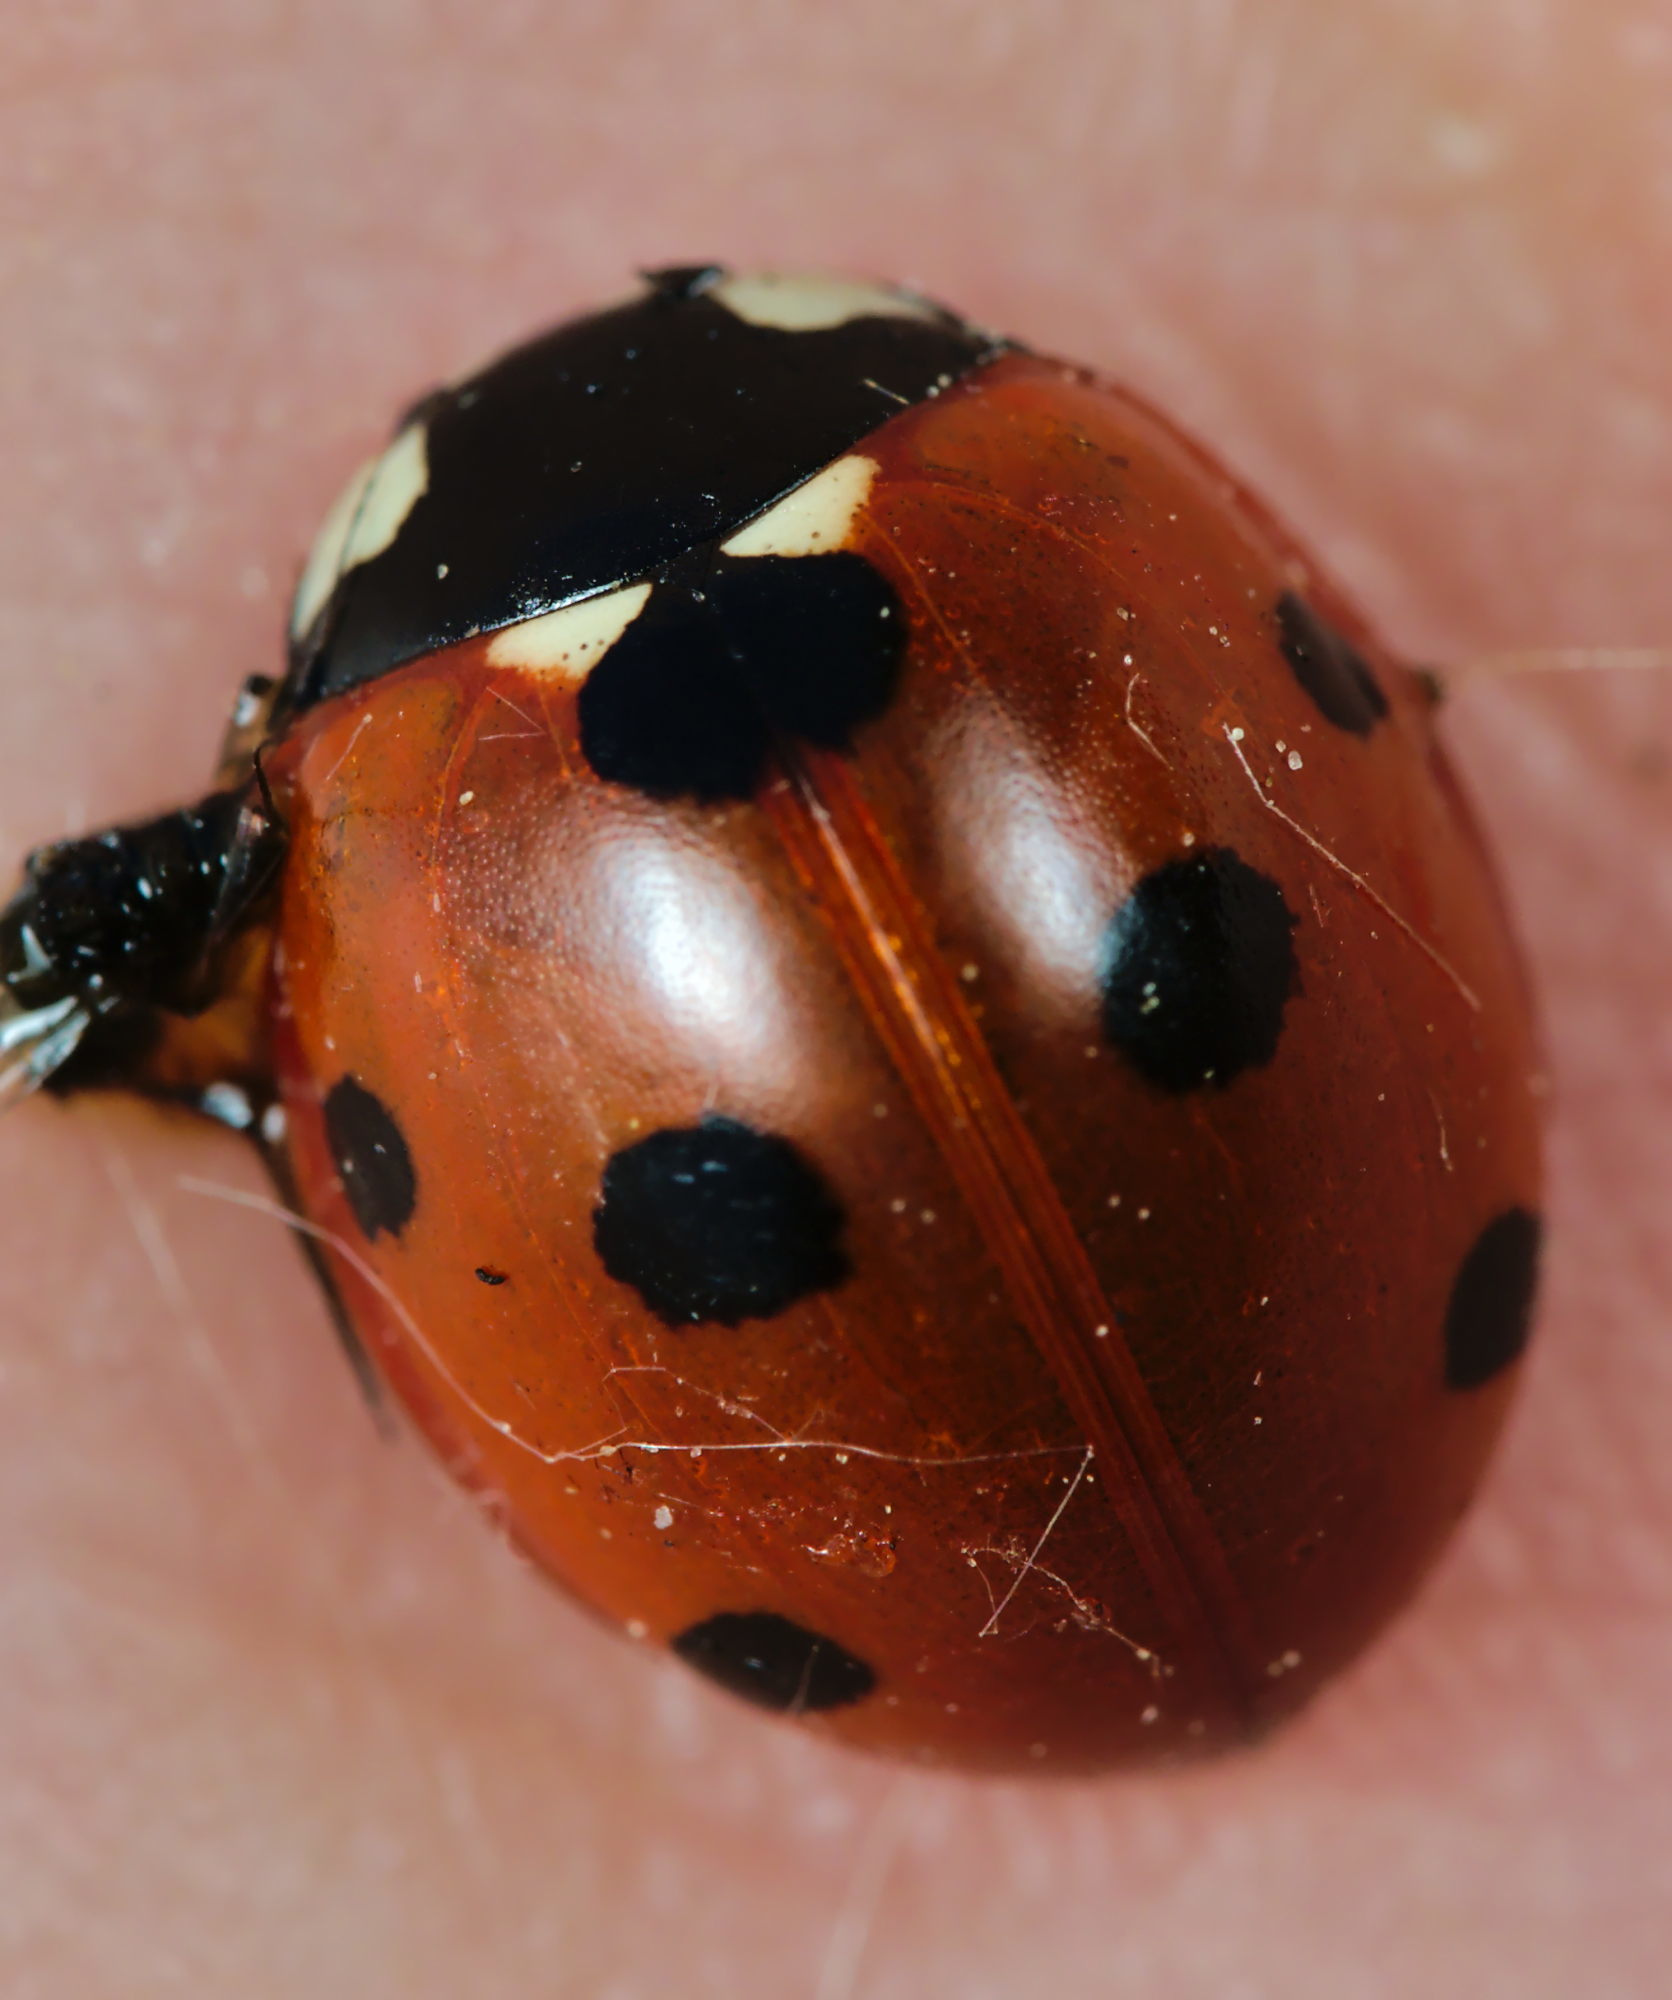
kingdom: Animalia
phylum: Arthropoda
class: Insecta
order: Coleoptera
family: Coccinellidae
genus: Coccinella
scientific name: Coccinella septempunctata
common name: Sevenspotted lady beetle
